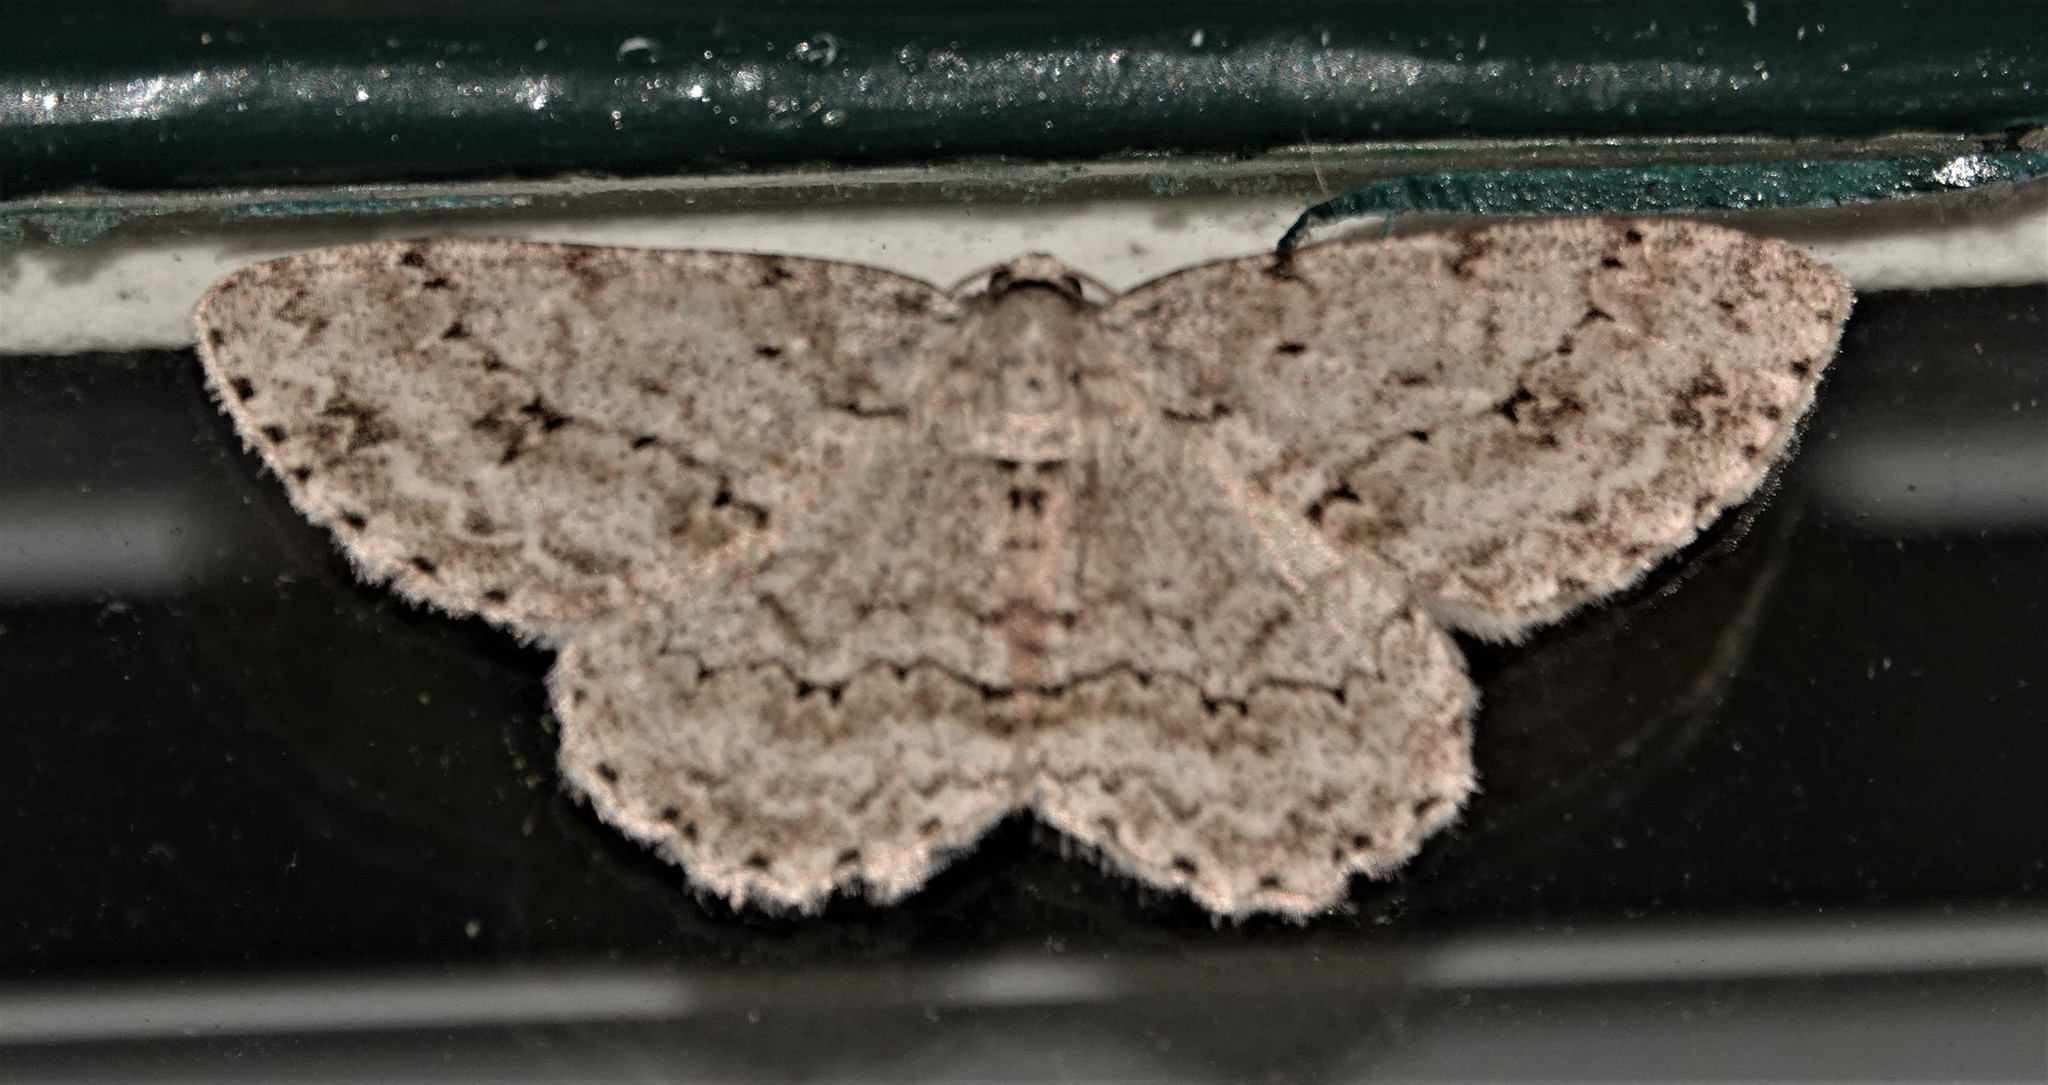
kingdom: Animalia
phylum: Arthropoda
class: Insecta
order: Lepidoptera
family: Geometridae
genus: Ectropis
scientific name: Ectropis crepuscularia
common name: Engrailed
